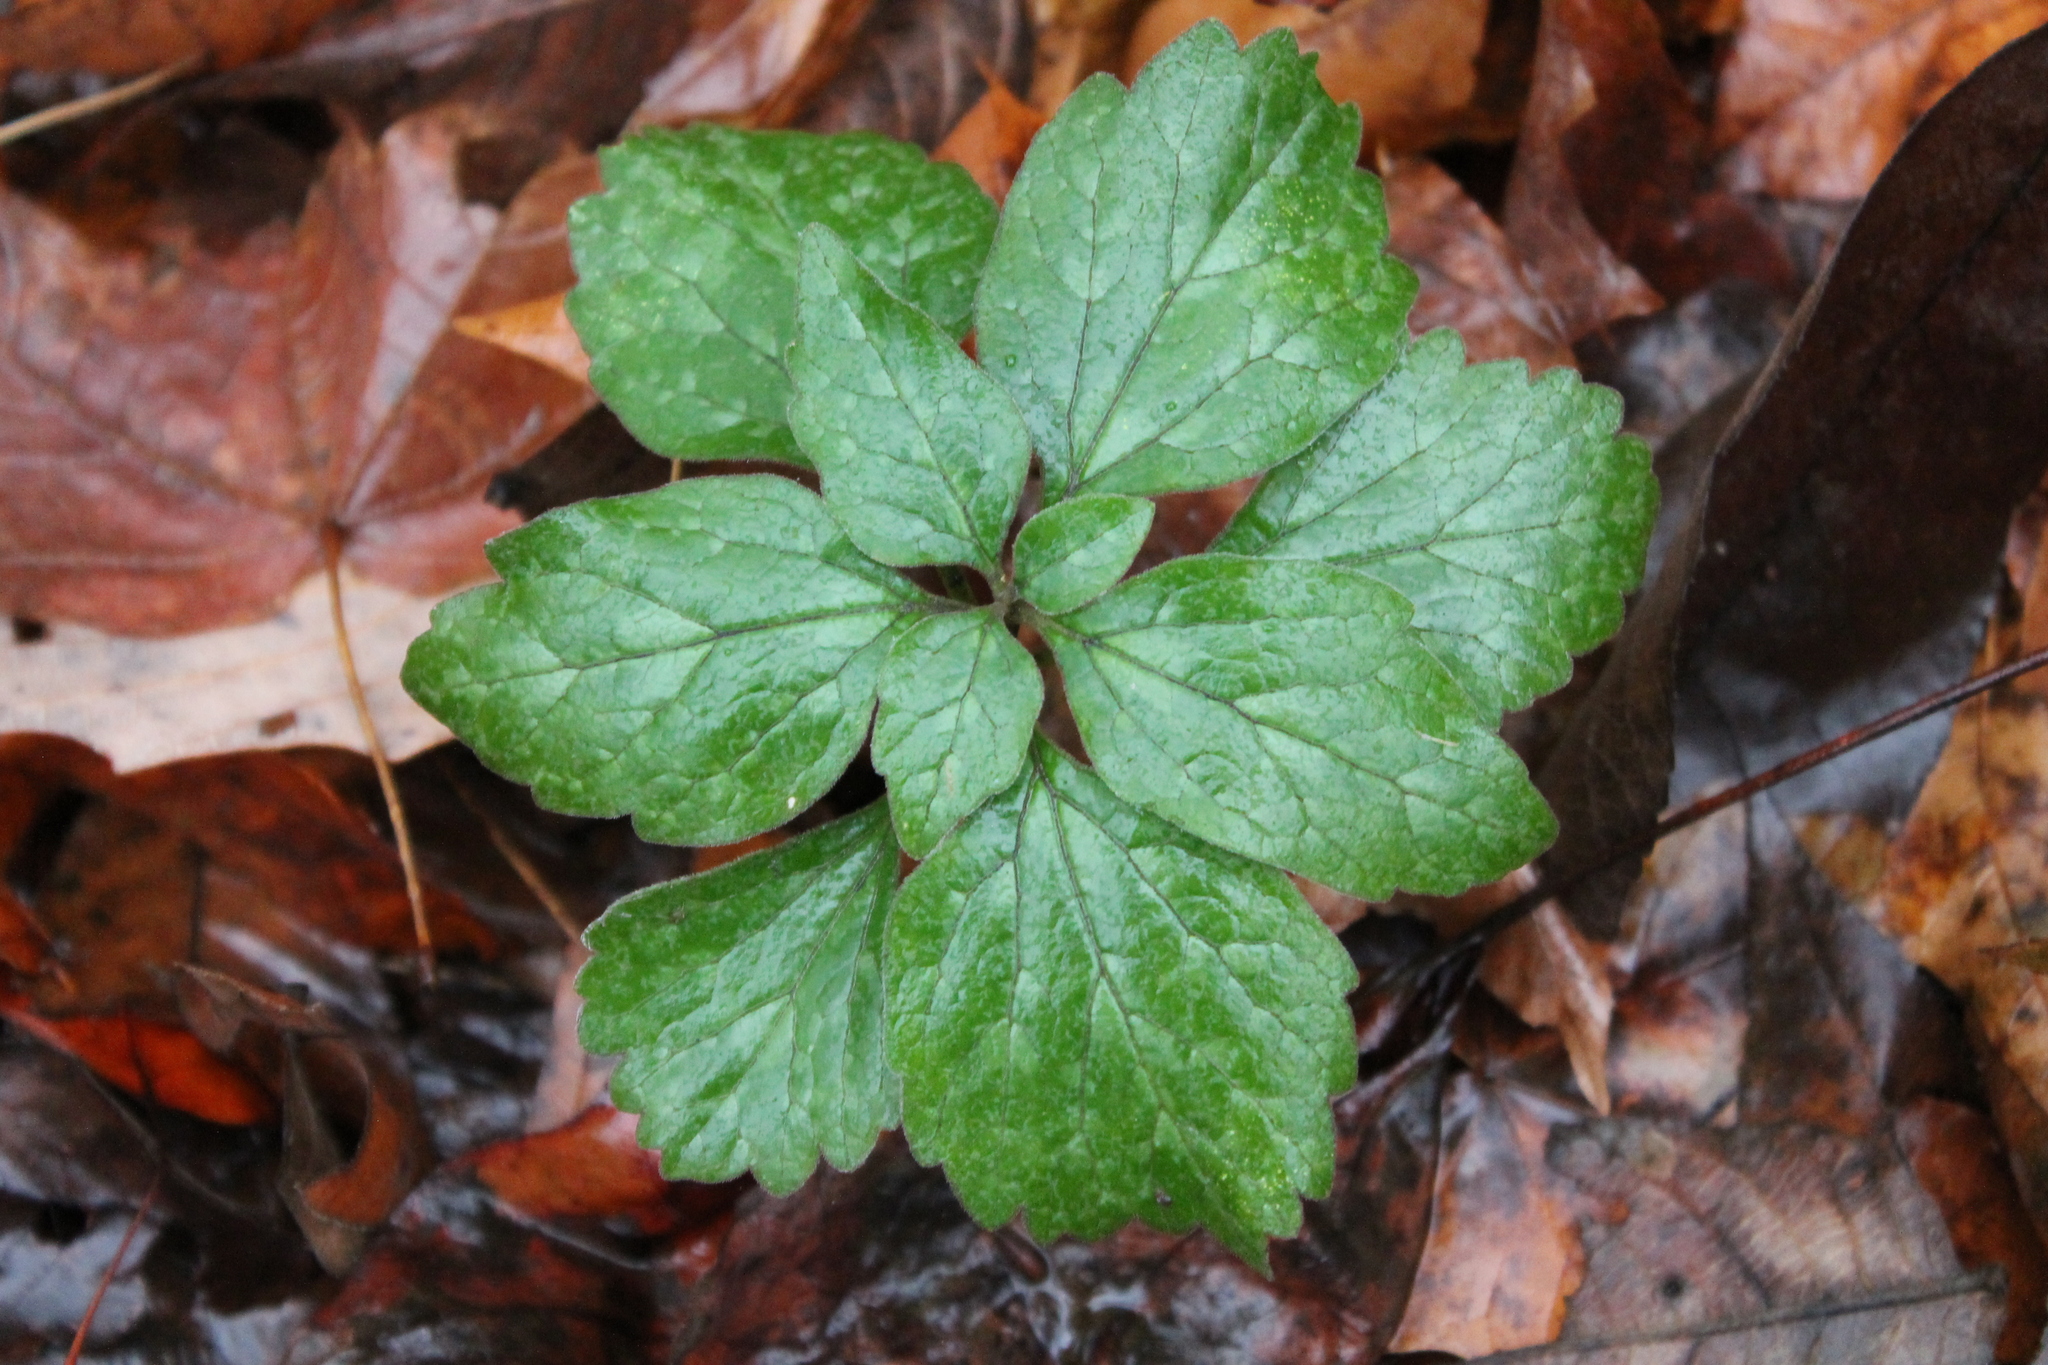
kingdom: Plantae
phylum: Tracheophyta
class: Magnoliopsida
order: Buxales
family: Buxaceae
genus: Pachysandra
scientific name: Pachysandra procumbens
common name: Mountain-spurge
